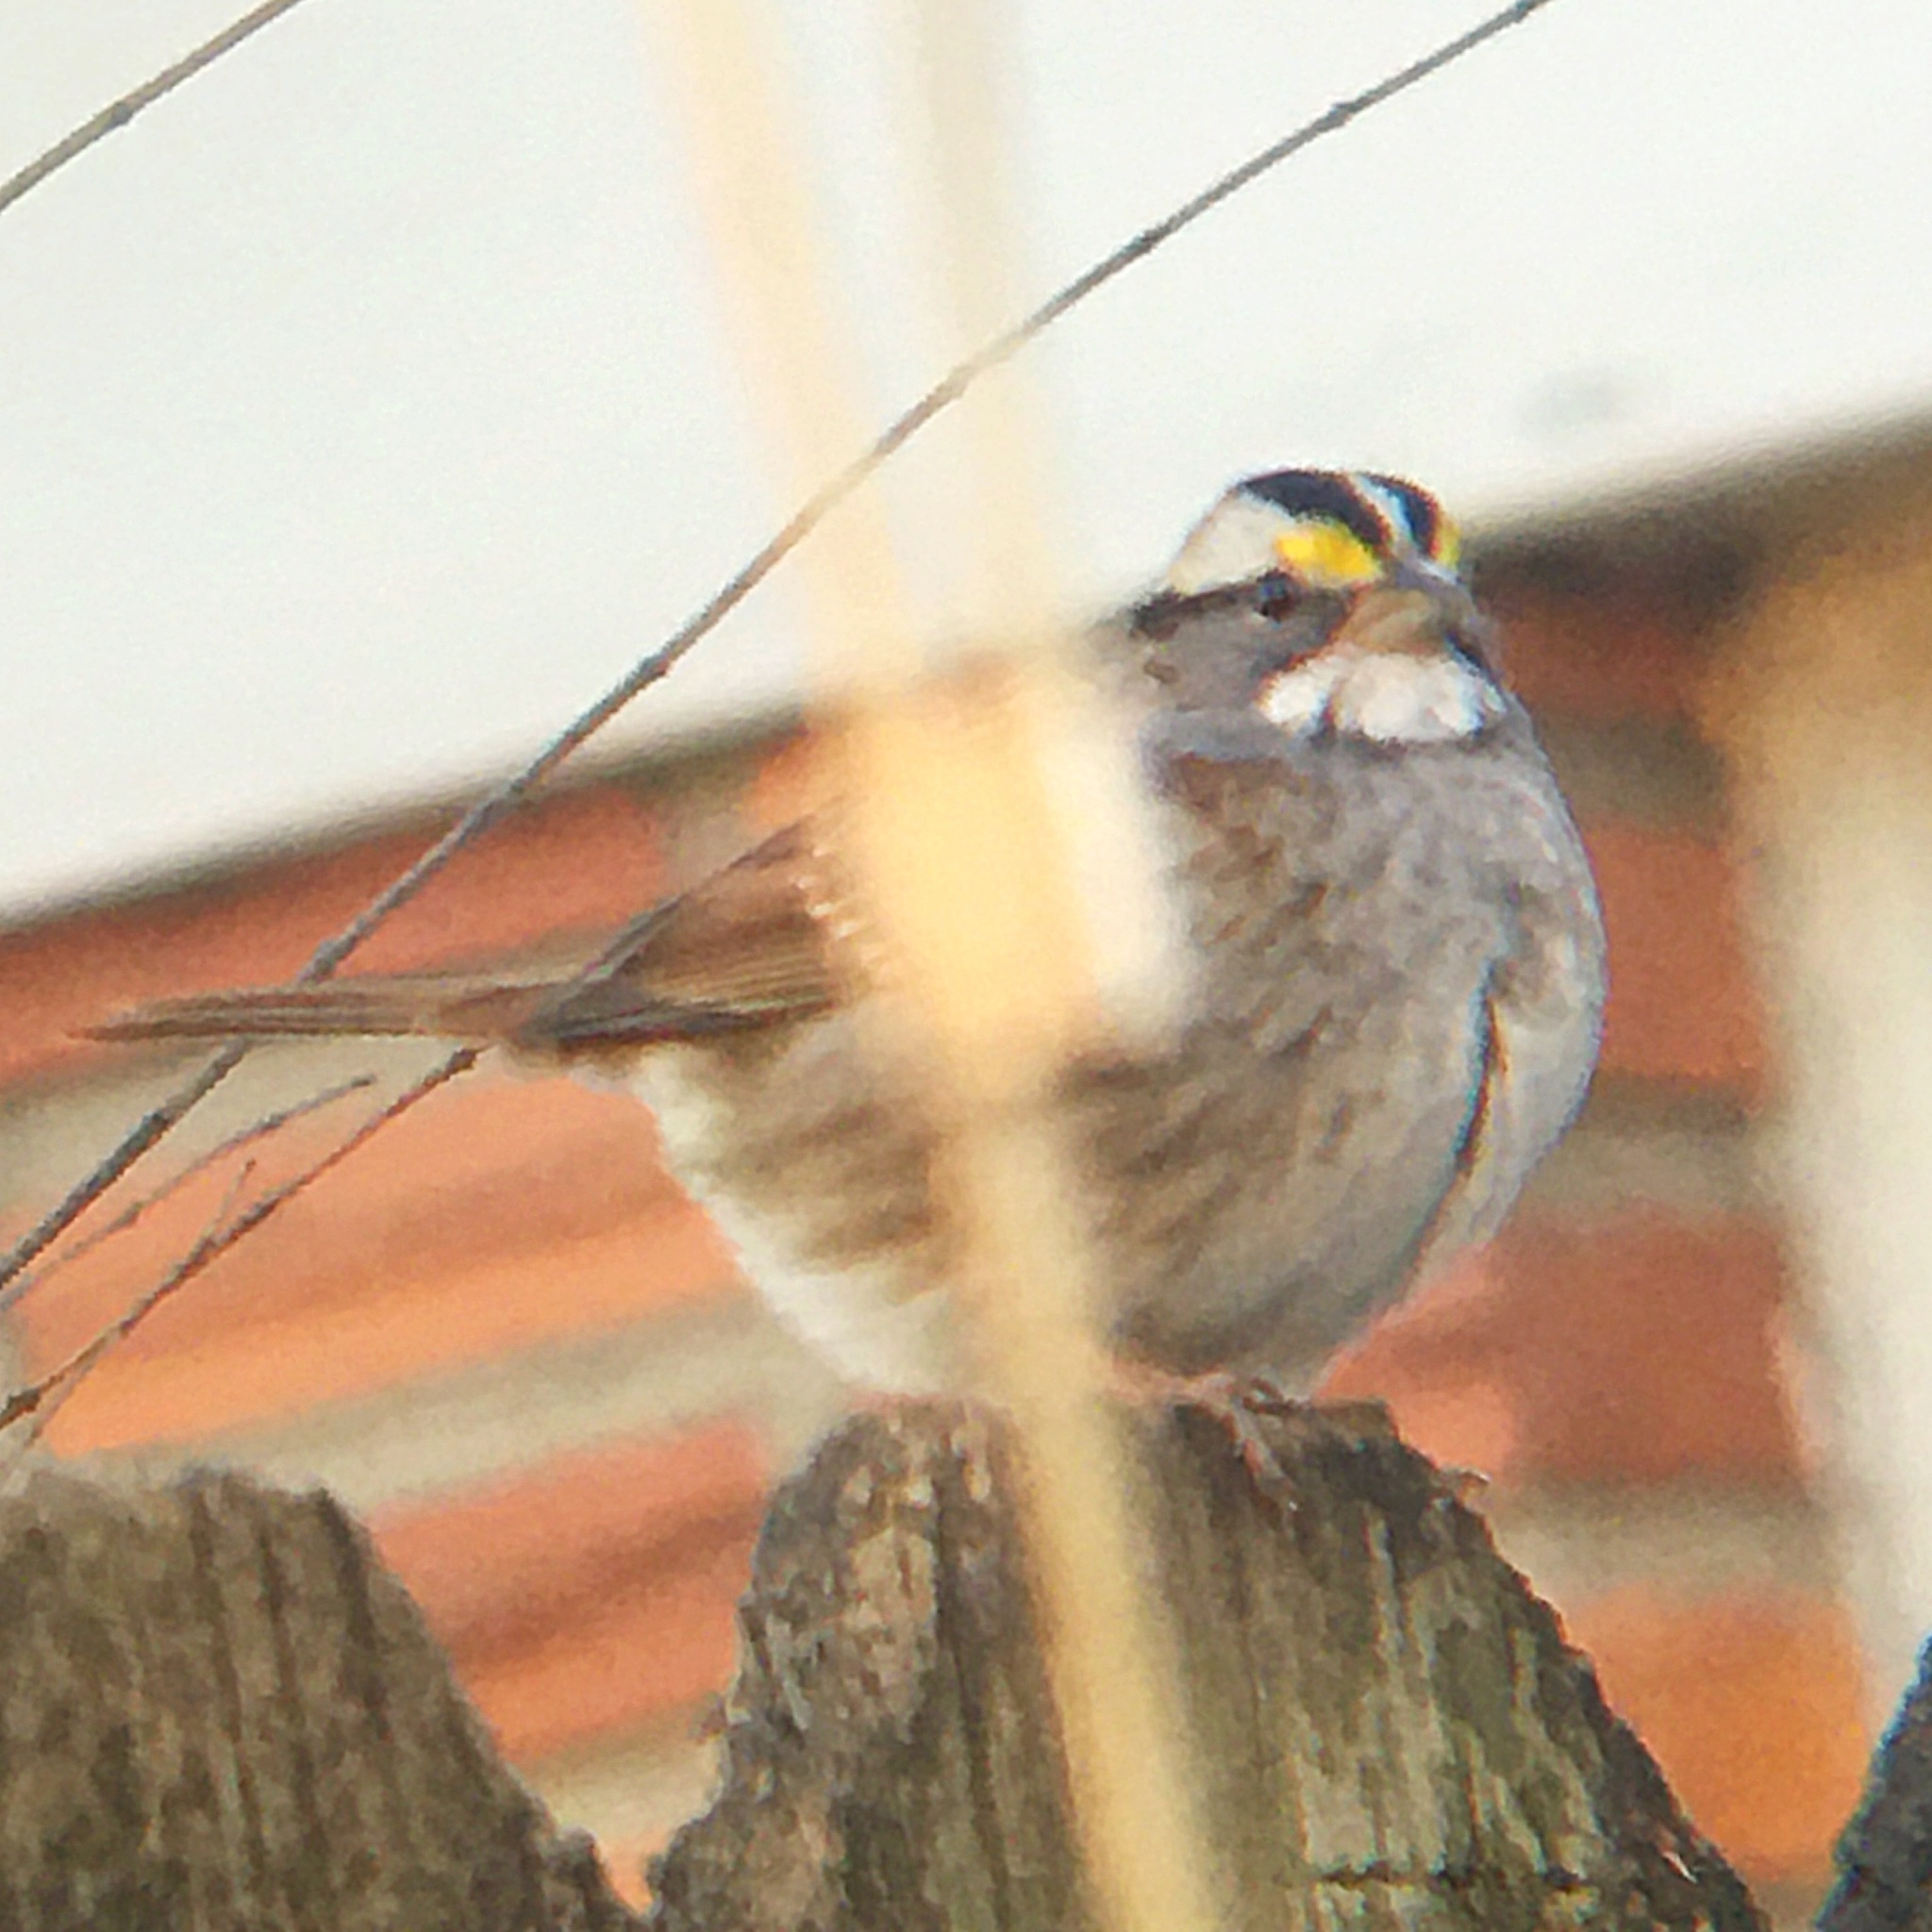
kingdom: Animalia
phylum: Chordata
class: Aves
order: Passeriformes
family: Passerellidae
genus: Zonotrichia
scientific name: Zonotrichia albicollis
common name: White-throated sparrow
